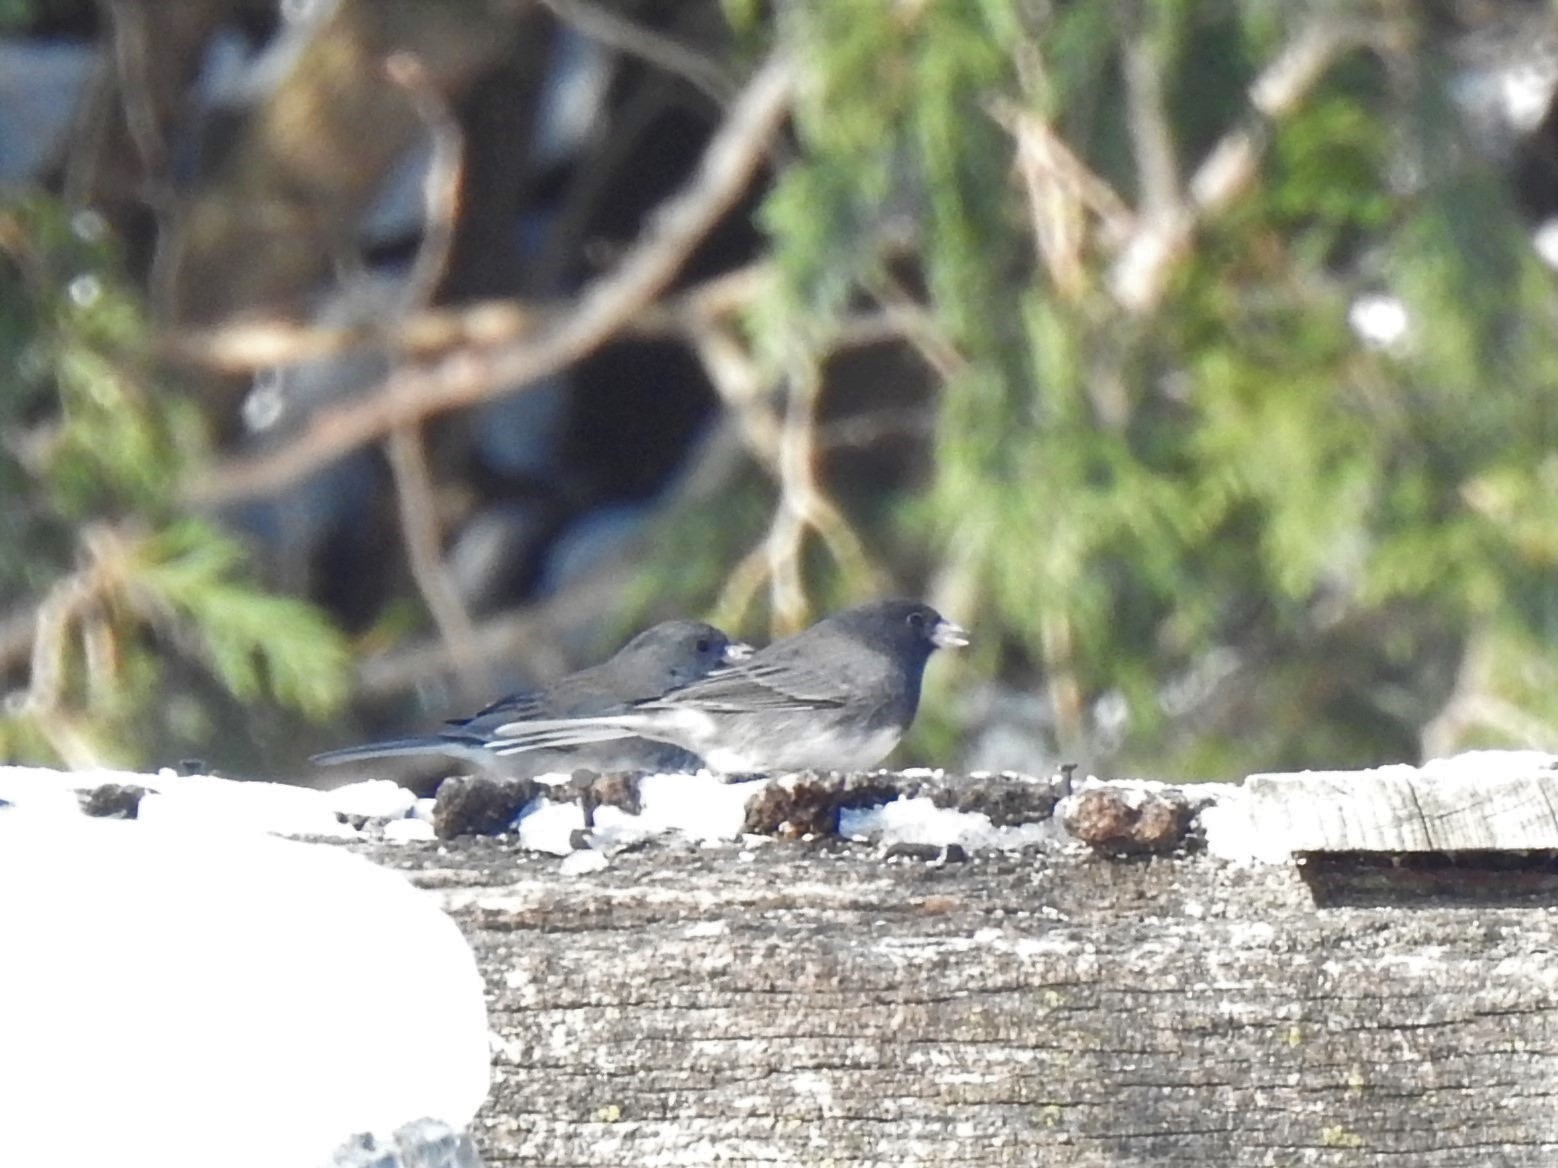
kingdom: Animalia
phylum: Chordata
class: Aves
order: Passeriformes
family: Passerellidae
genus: Junco
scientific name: Junco hyemalis
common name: Dark-eyed junco
